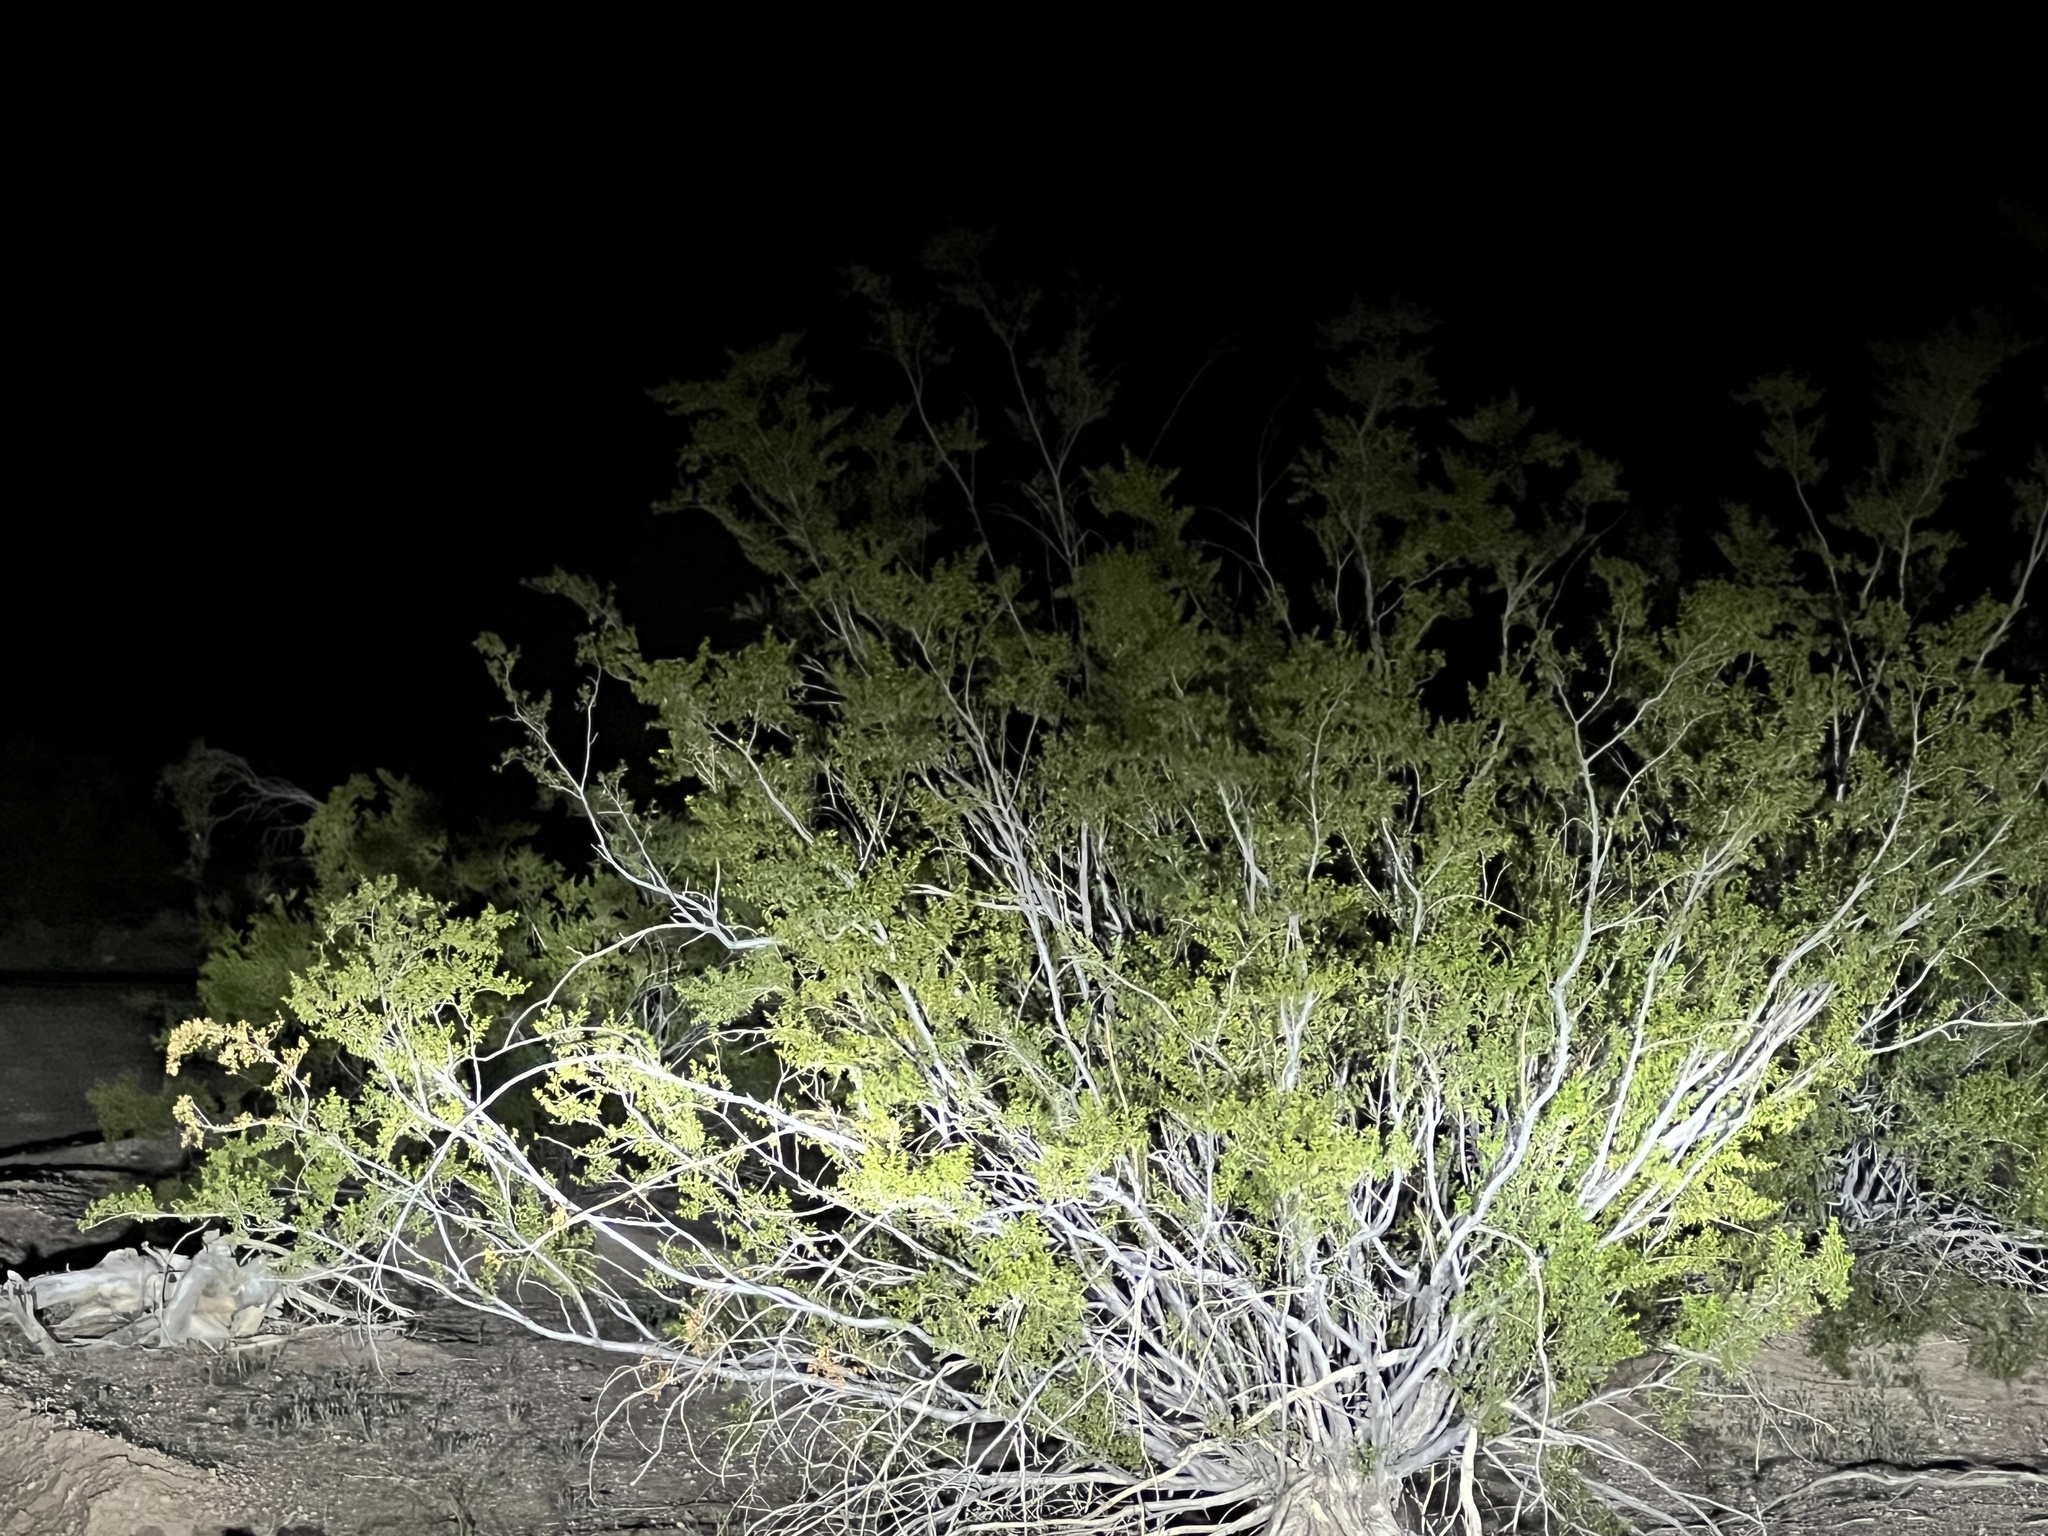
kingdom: Plantae
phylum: Tracheophyta
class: Magnoliopsida
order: Zygophyllales
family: Zygophyllaceae
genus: Larrea
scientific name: Larrea tridentata
